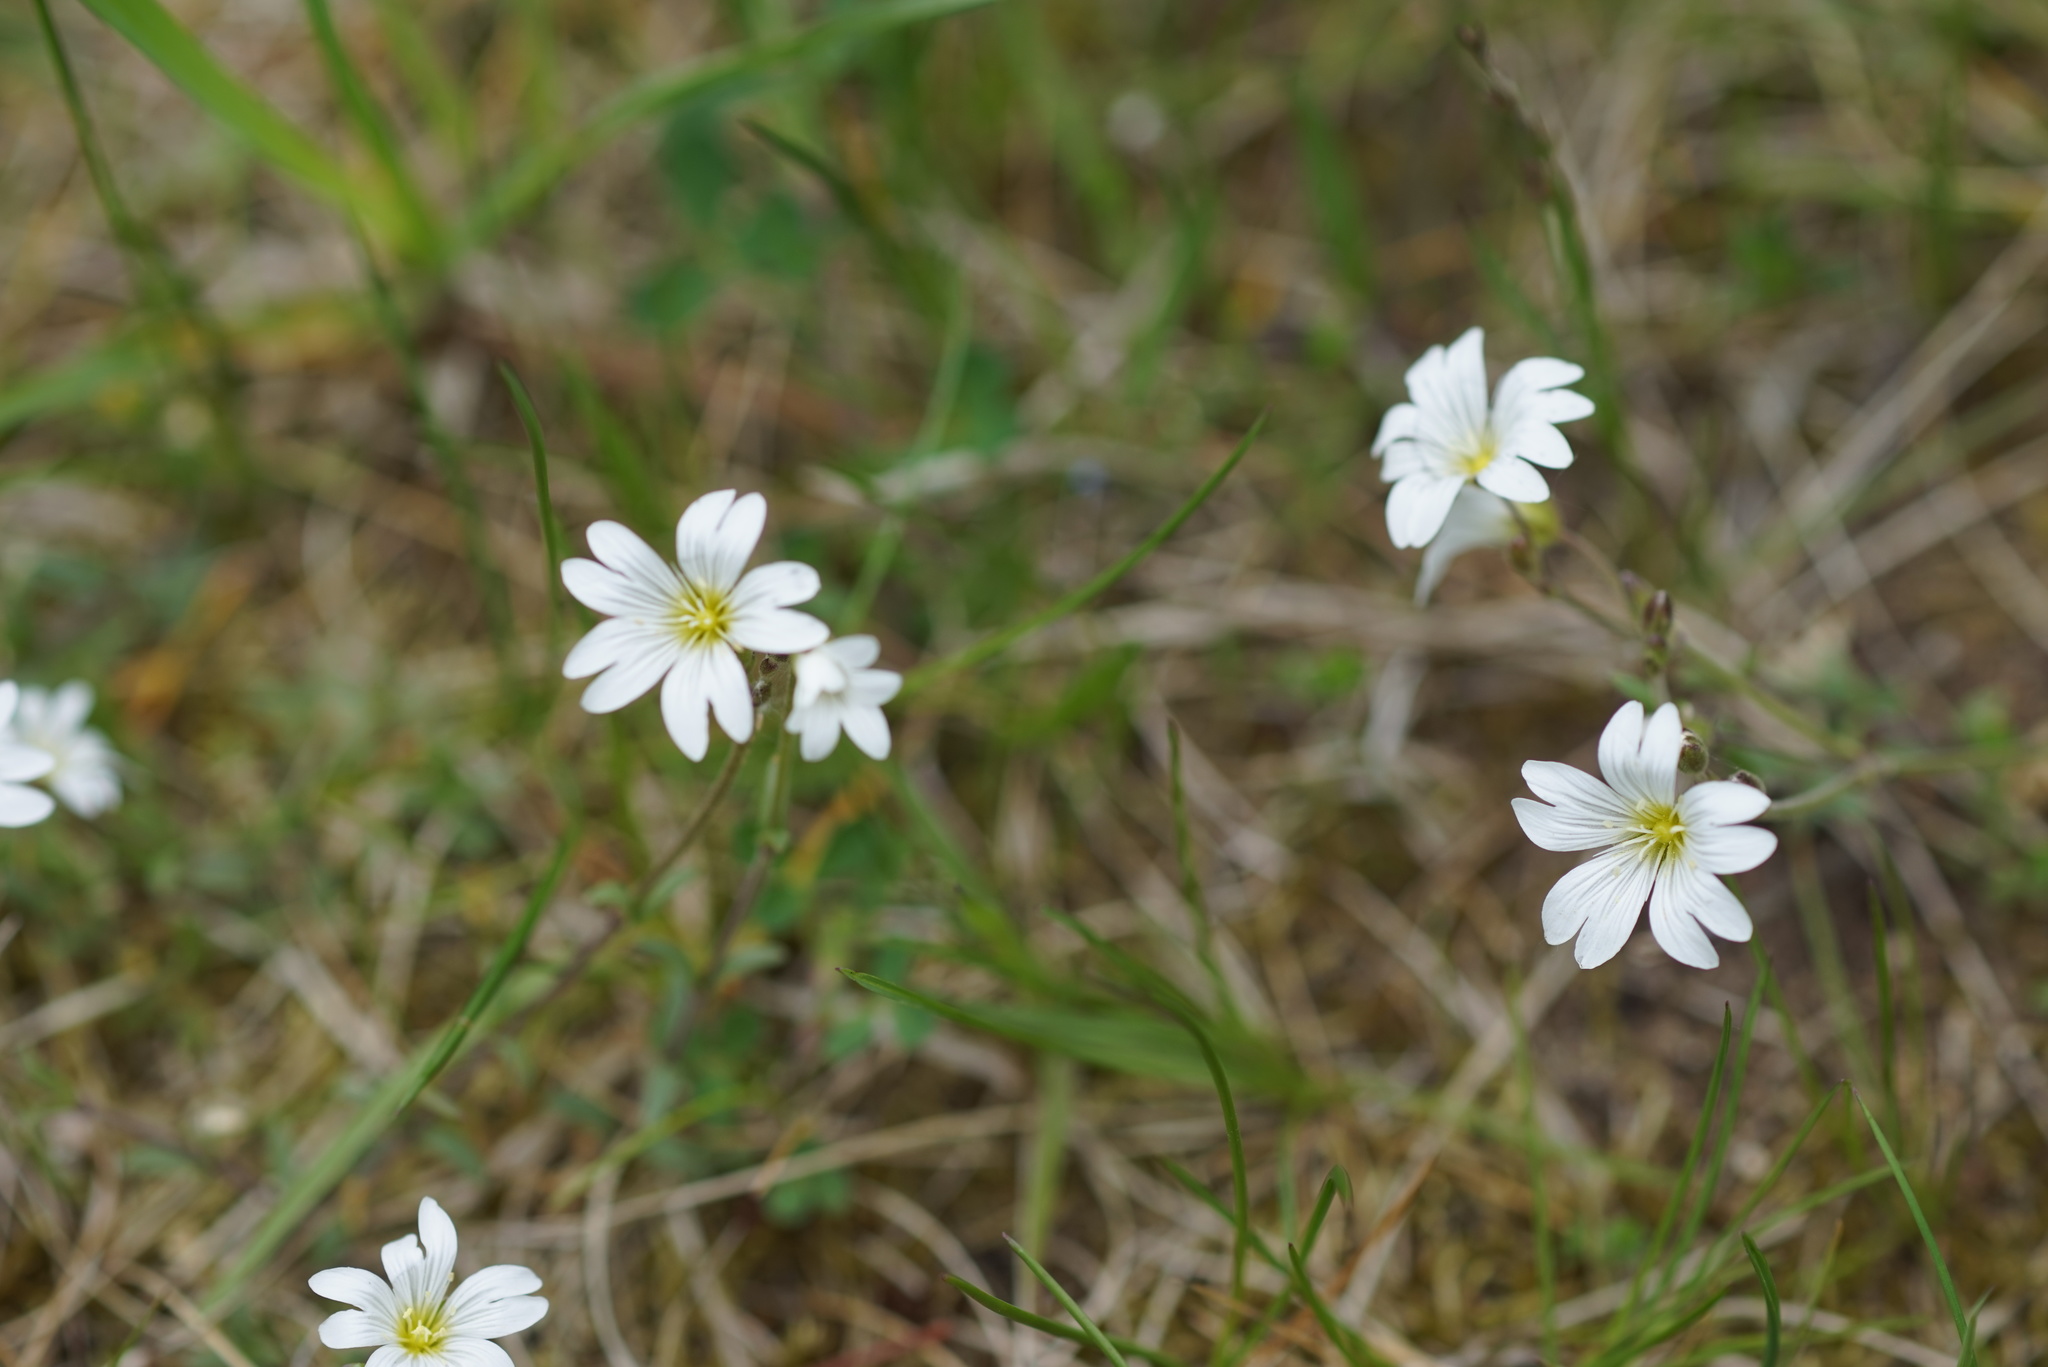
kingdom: Plantae
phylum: Tracheophyta
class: Magnoliopsida
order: Caryophyllales
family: Caryophyllaceae
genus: Cerastium
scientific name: Cerastium arvense
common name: Field mouse-ear
